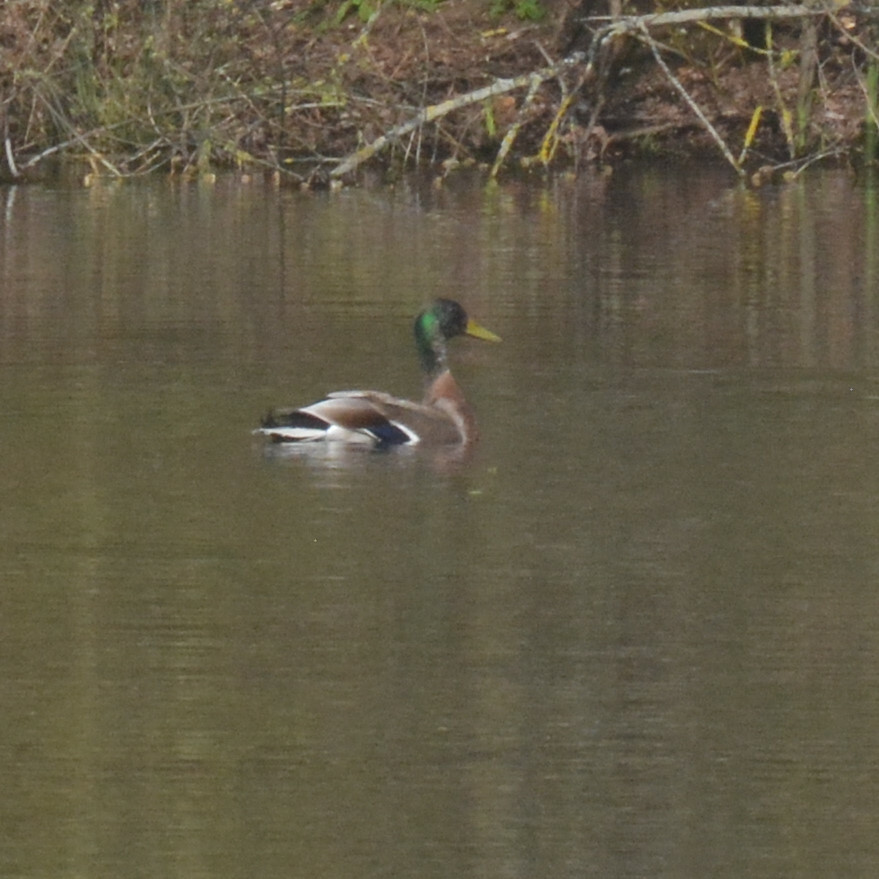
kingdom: Animalia
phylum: Chordata
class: Aves
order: Anseriformes
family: Anatidae
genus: Anas
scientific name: Anas platyrhynchos
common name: Mallard
